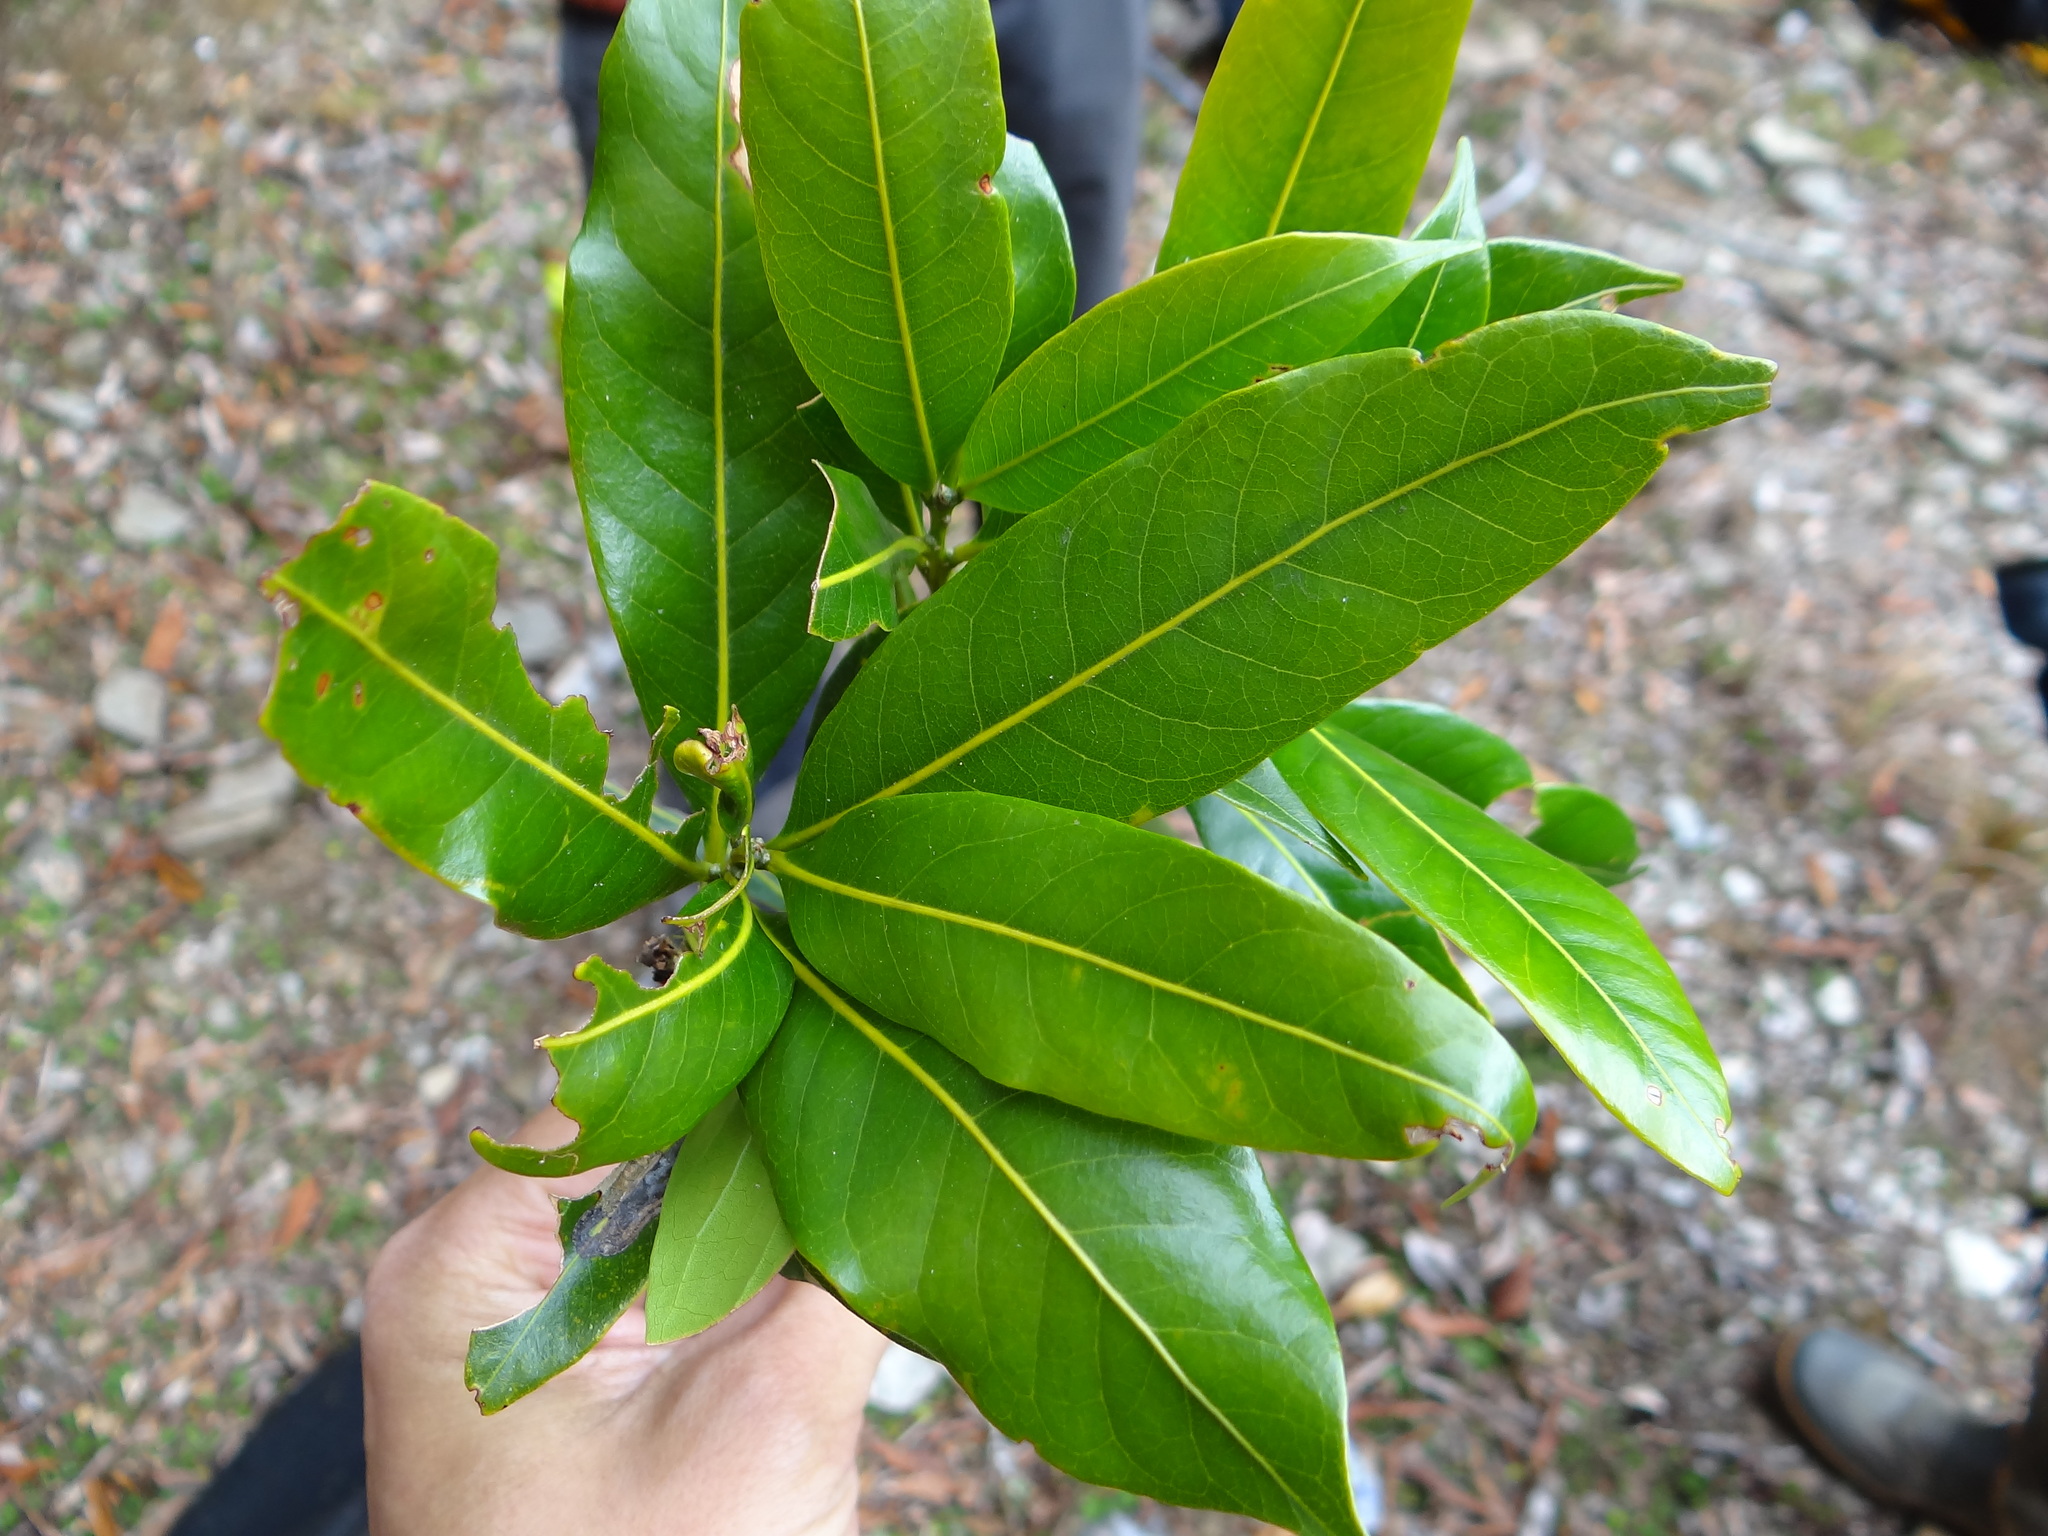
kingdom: Plantae
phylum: Tracheophyta
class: Magnoliopsida
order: Fagales
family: Fagaceae
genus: Lithocarpus
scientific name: Lithocarpus hancei
